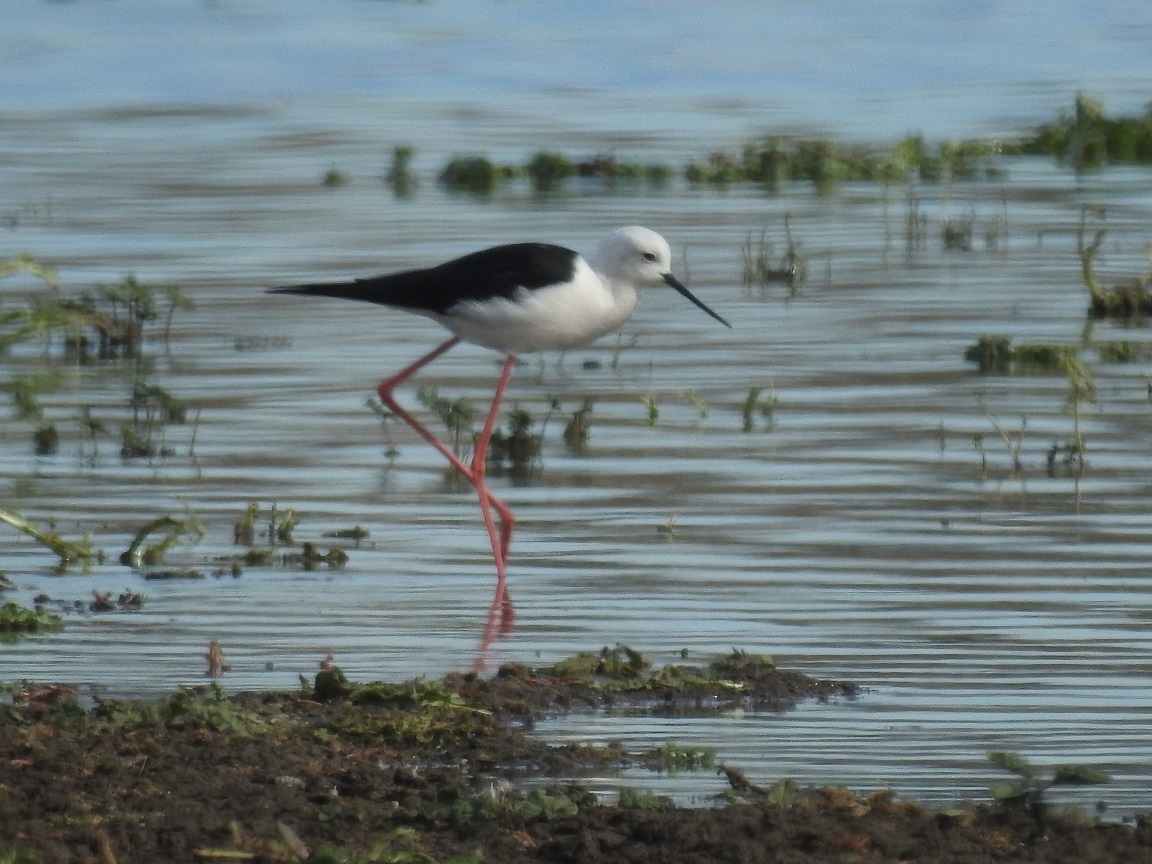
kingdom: Animalia
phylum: Chordata
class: Aves
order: Charadriiformes
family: Recurvirostridae
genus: Himantopus
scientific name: Himantopus himantopus
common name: Black-winged stilt
